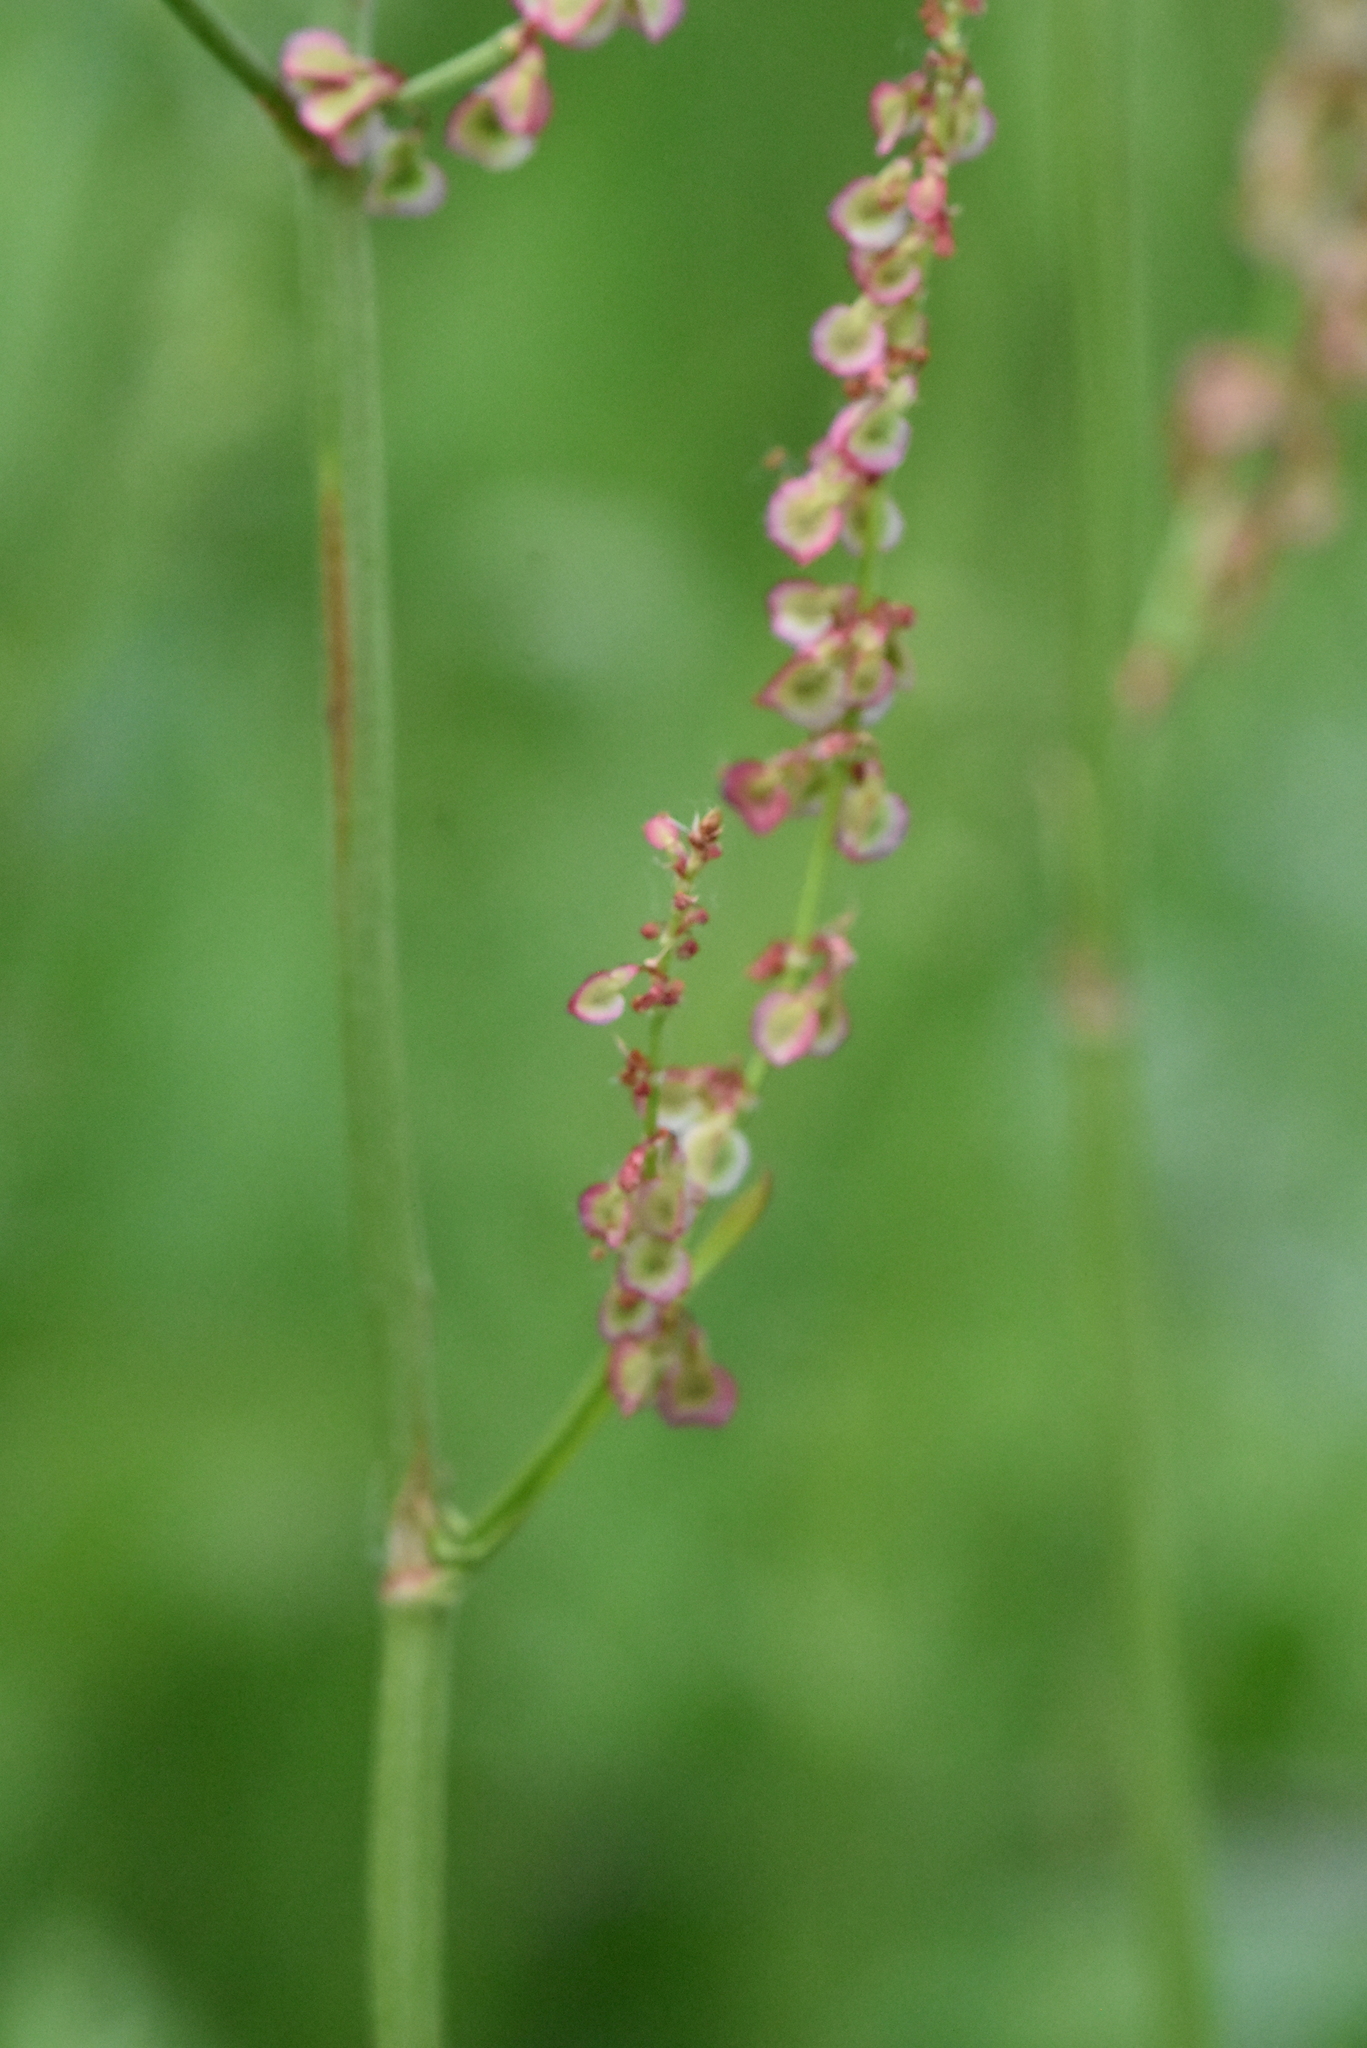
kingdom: Plantae
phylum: Tracheophyta
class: Magnoliopsida
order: Caryophyllales
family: Polygonaceae
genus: Rumex
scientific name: Rumex acetosa
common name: Garden sorrel
